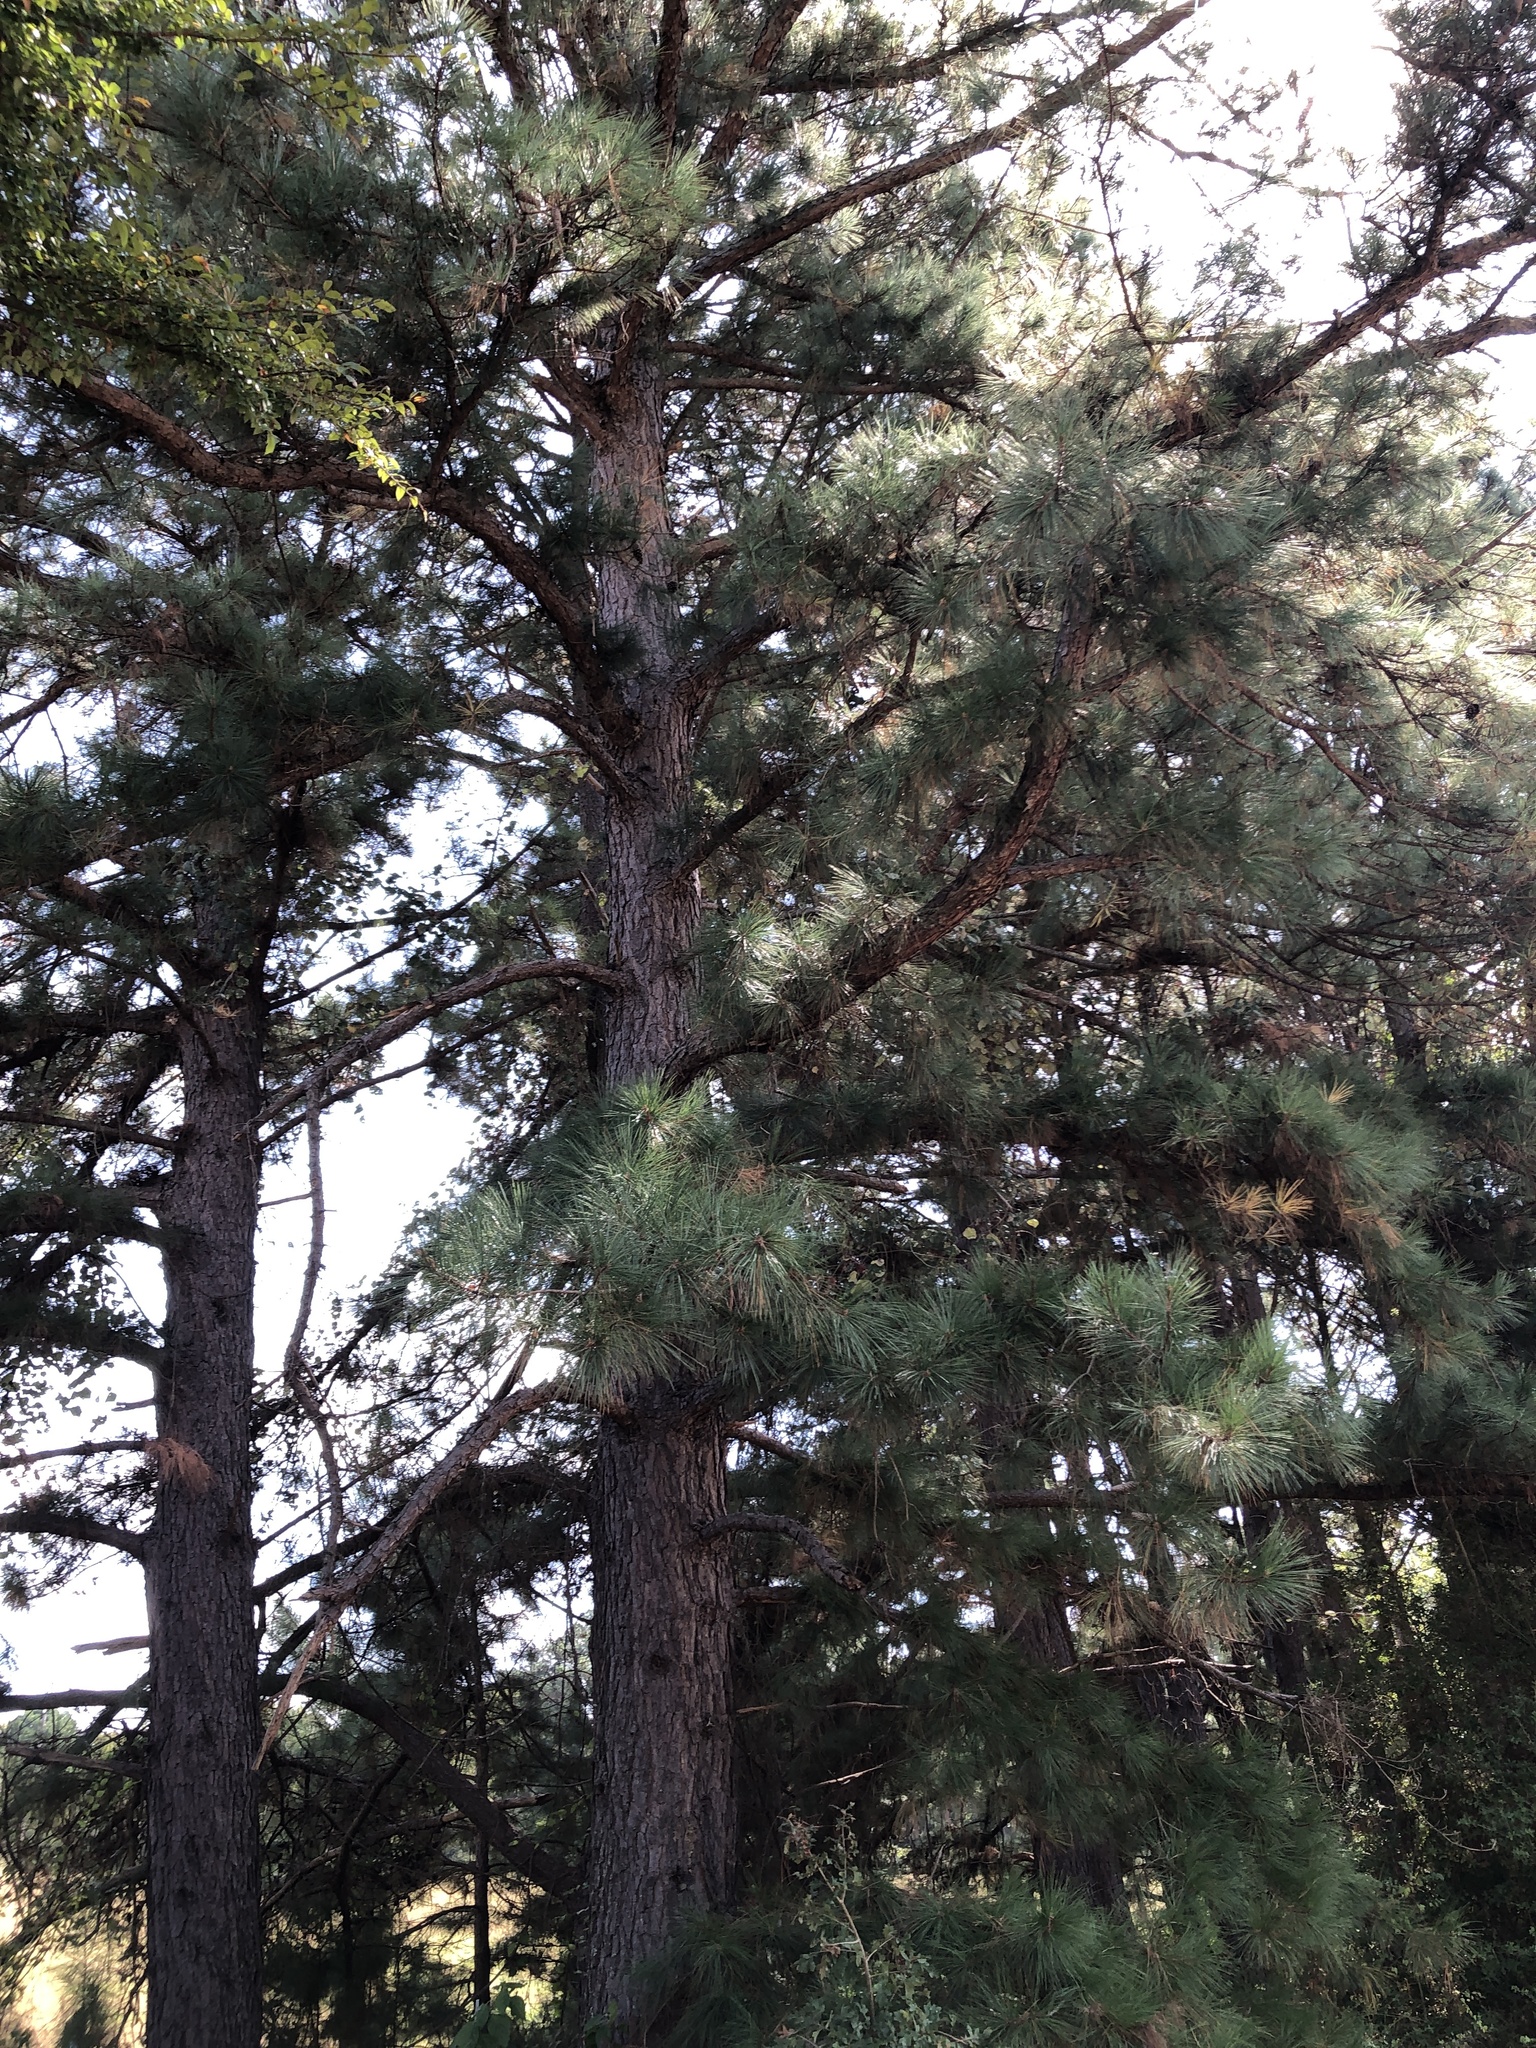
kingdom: Plantae
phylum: Tracheophyta
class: Pinopsida
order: Pinales
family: Pinaceae
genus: Pinus
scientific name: Pinus taeda
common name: Loblolly pine
